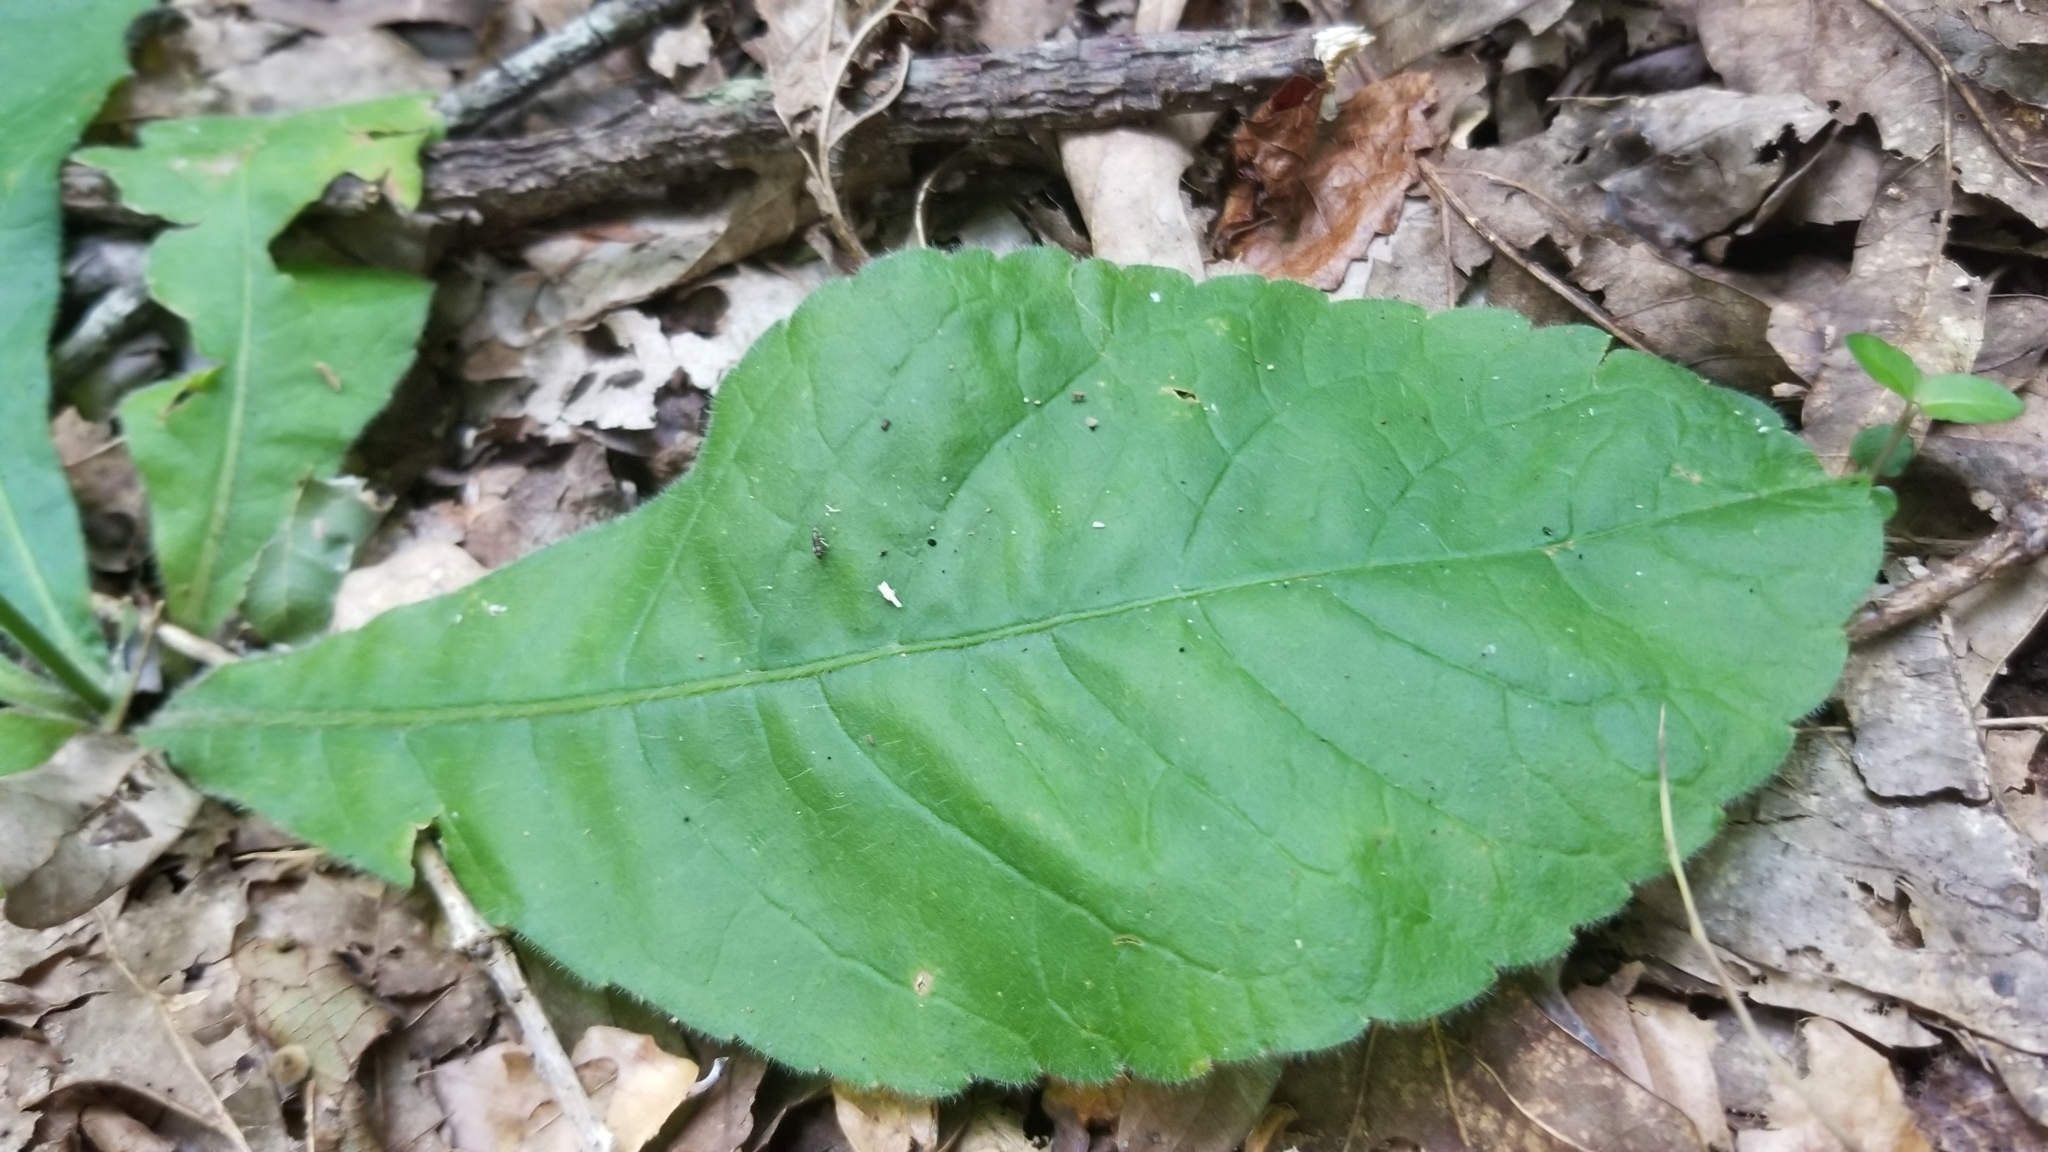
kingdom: Plantae
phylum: Tracheophyta
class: Magnoliopsida
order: Asterales
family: Asteraceae
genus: Elephantopus
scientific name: Elephantopus tomentosus
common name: Tobacco-weed
